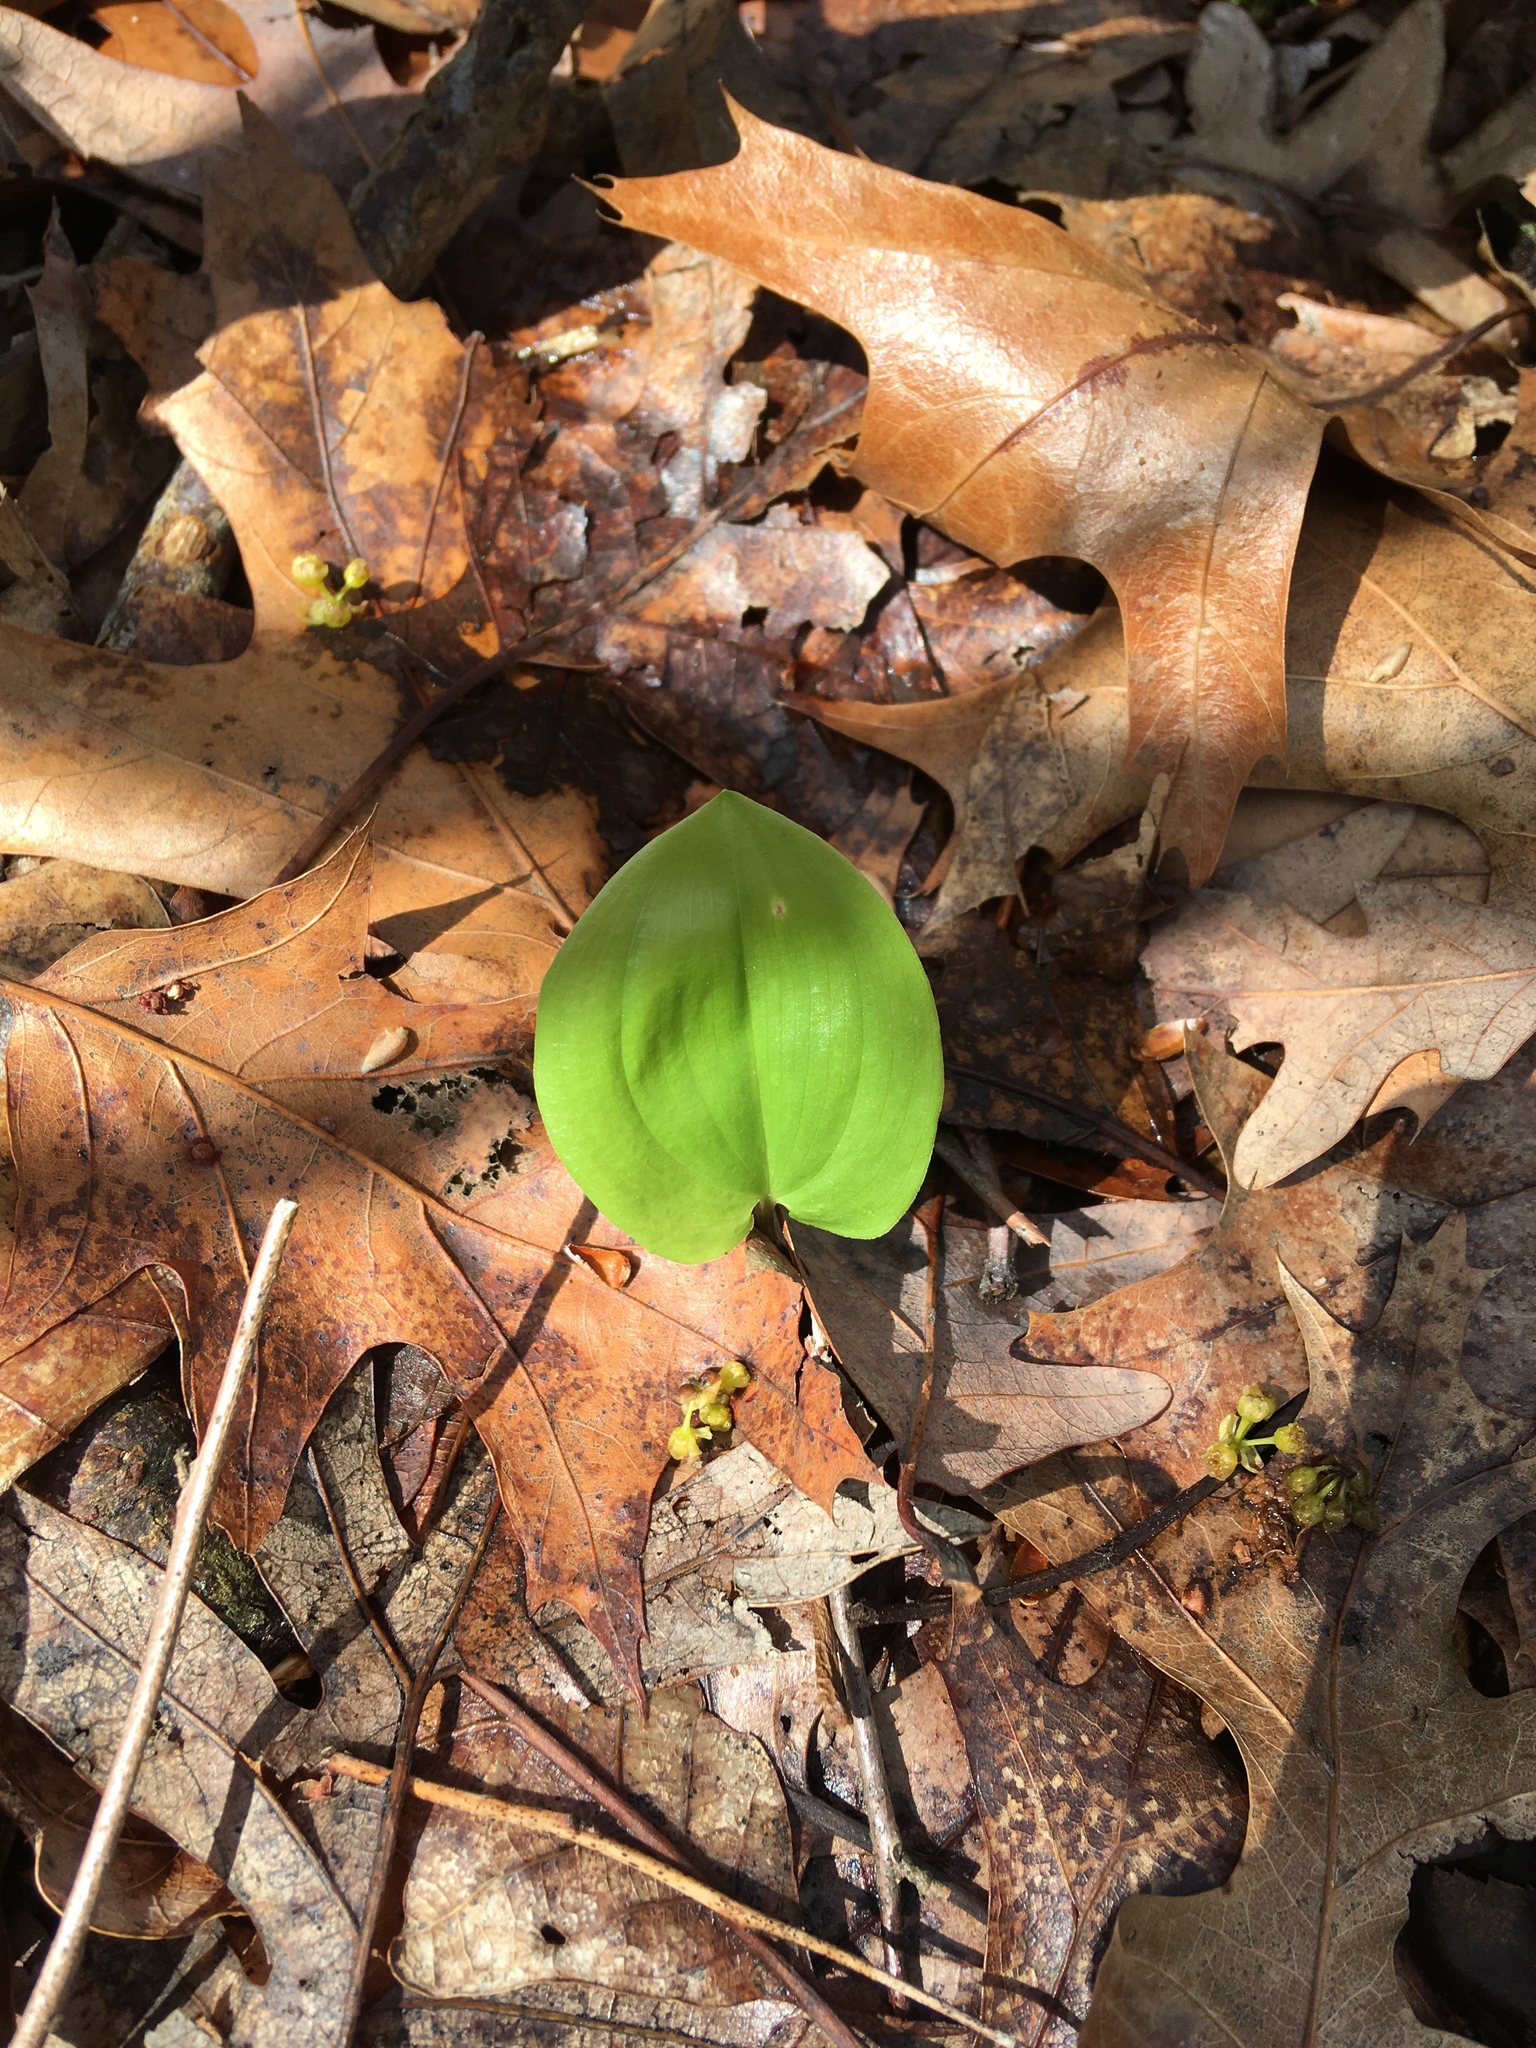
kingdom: Plantae
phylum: Tracheophyta
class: Liliopsida
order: Asparagales
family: Asparagaceae
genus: Maianthemum
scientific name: Maianthemum canadense
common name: False lily-of-the-valley
